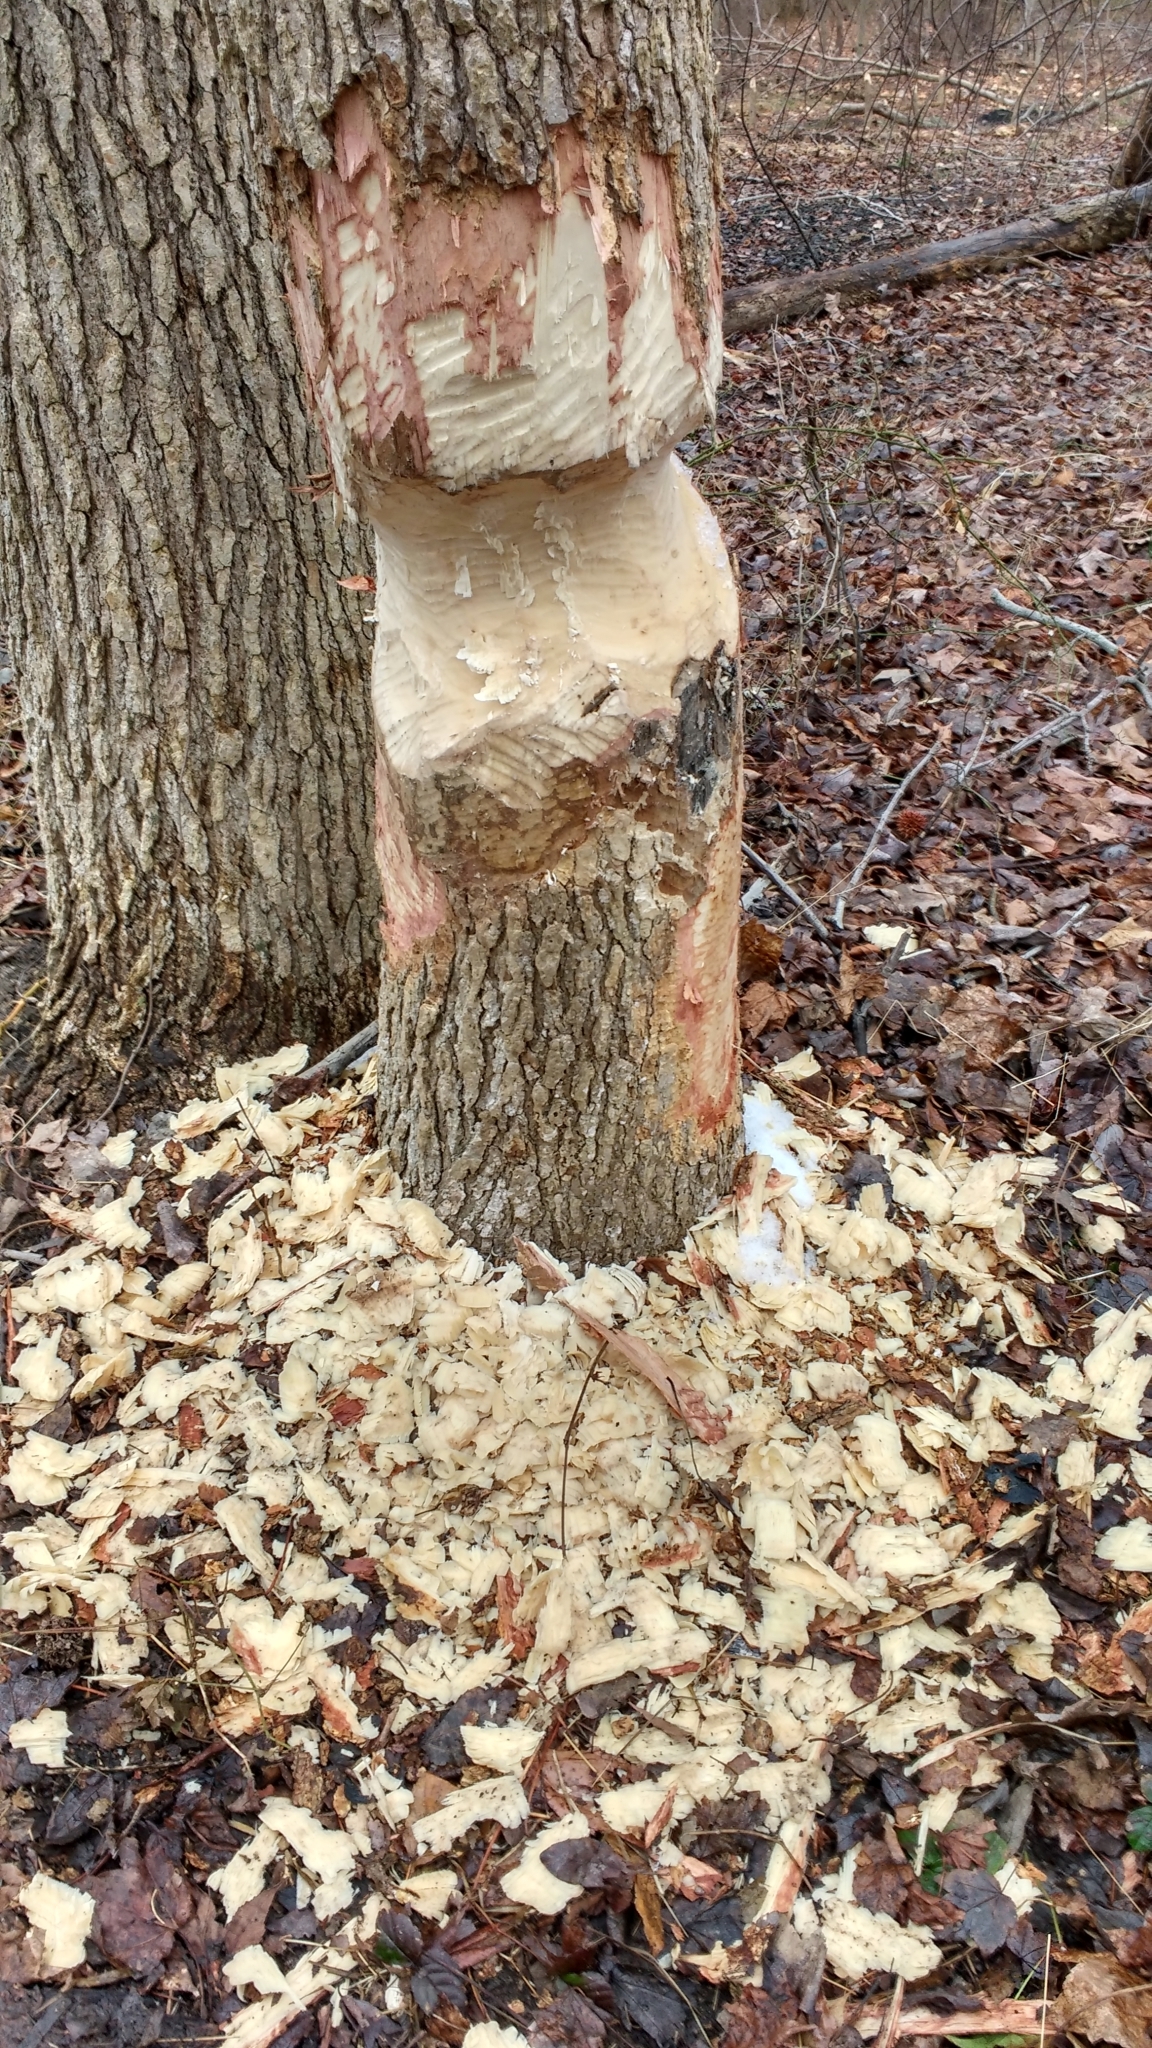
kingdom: Animalia
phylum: Chordata
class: Mammalia
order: Rodentia
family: Castoridae
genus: Castor
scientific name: Castor canadensis
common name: American beaver
